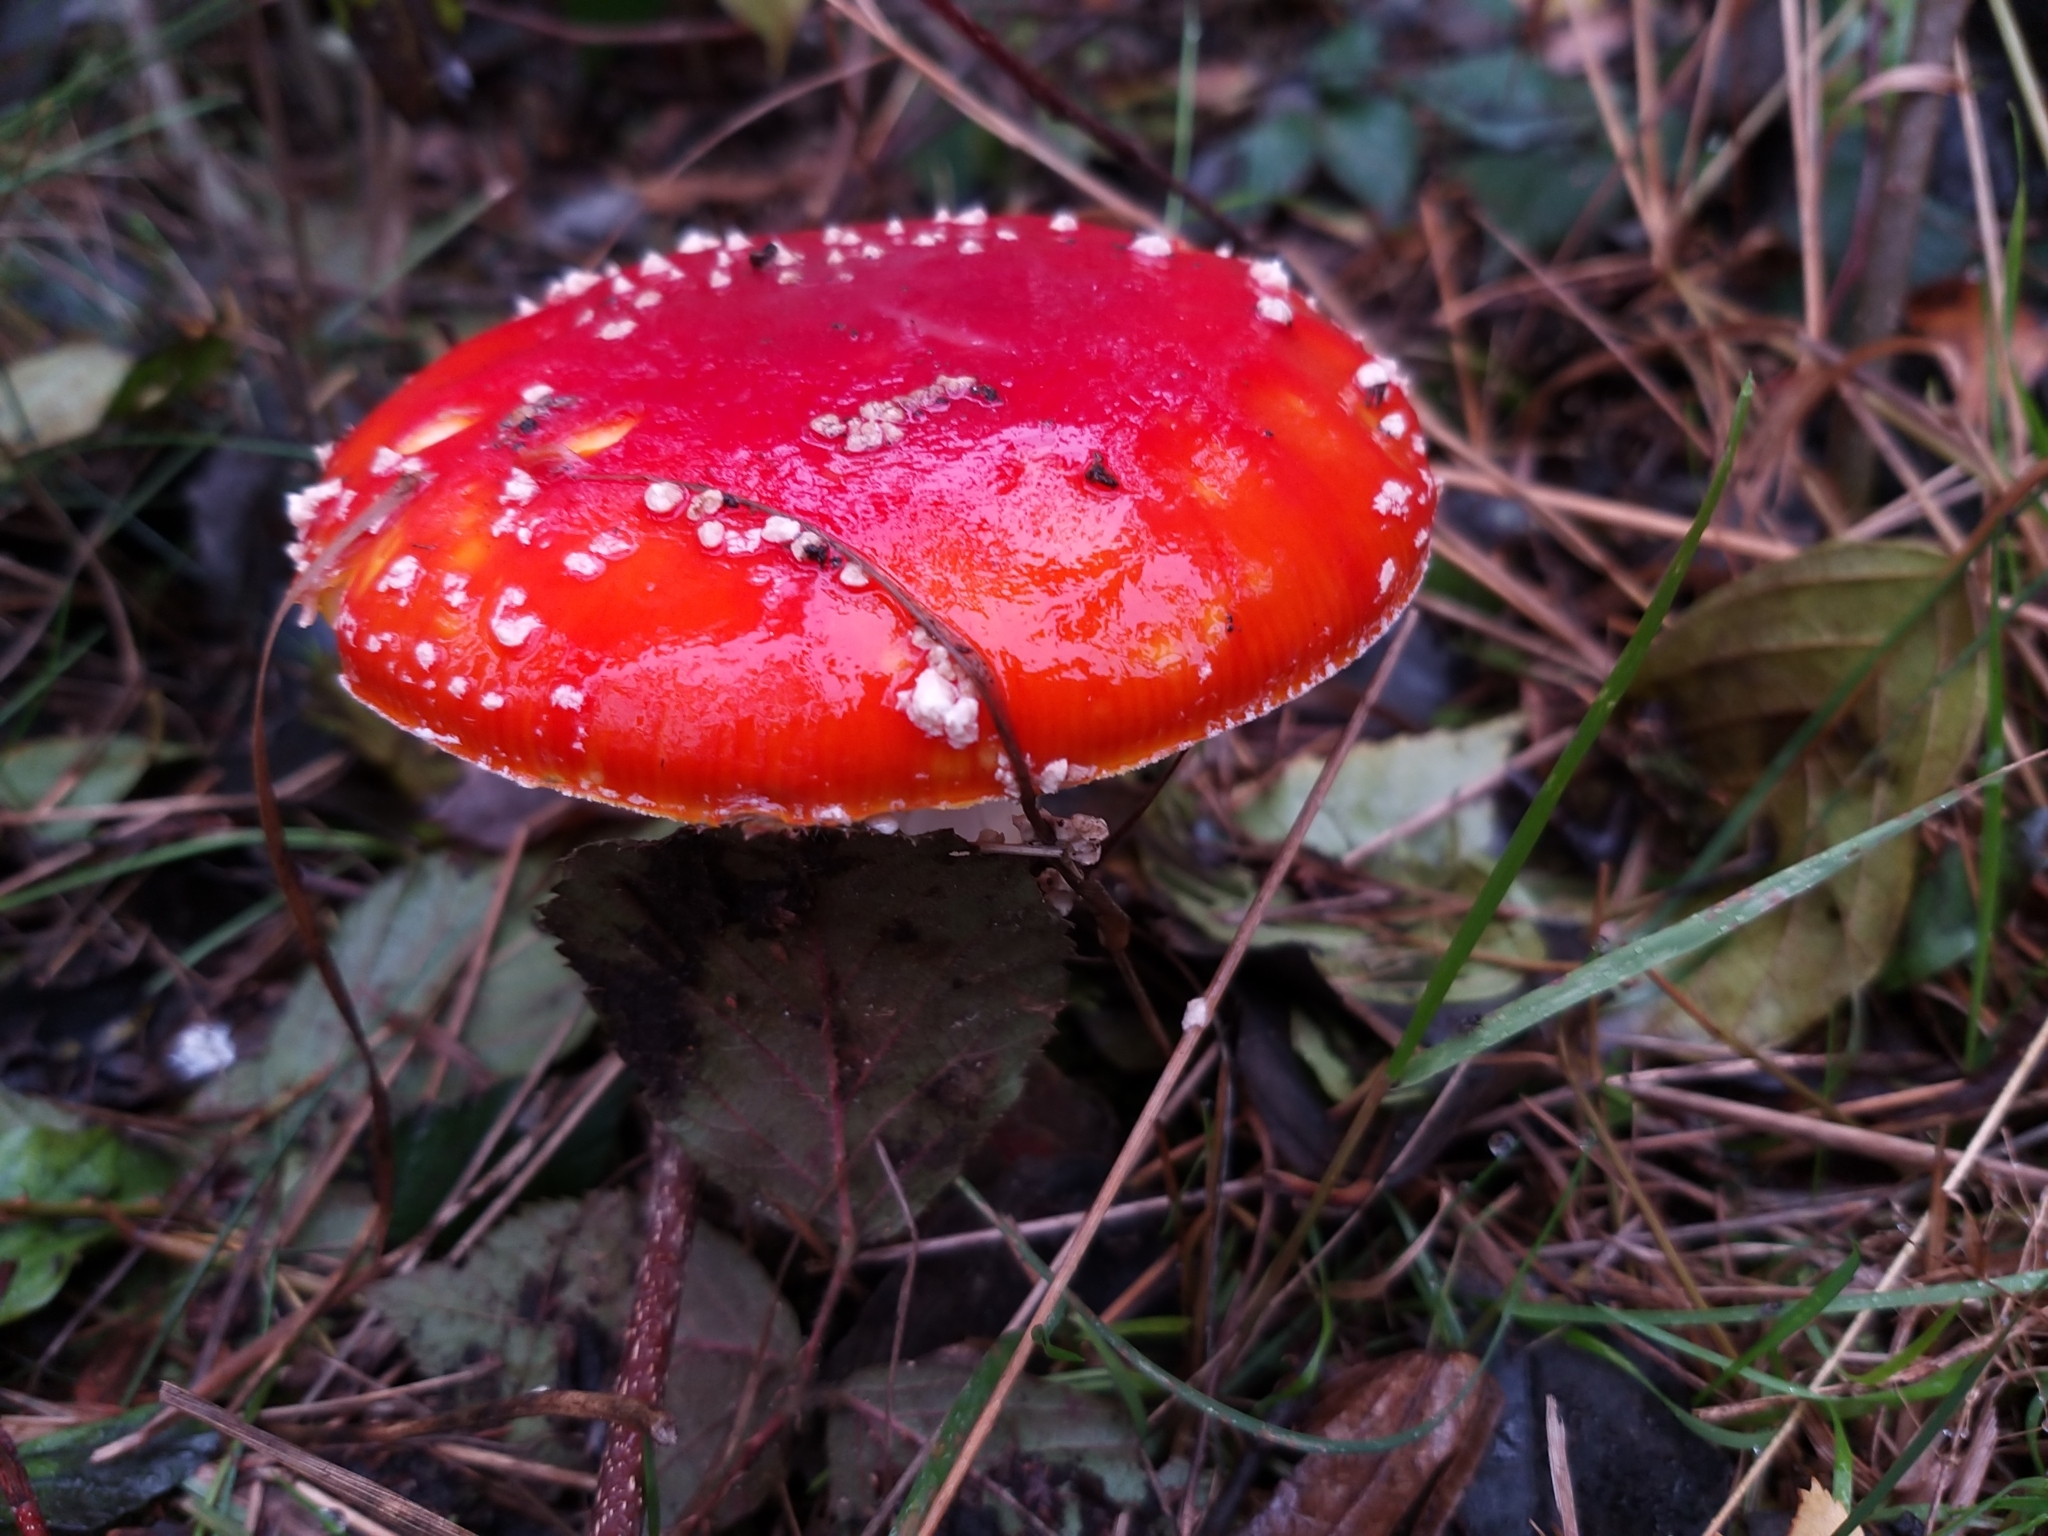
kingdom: Fungi
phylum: Basidiomycota
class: Agaricomycetes
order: Agaricales
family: Amanitaceae
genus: Amanita
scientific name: Amanita muscaria
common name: Fly agaric
